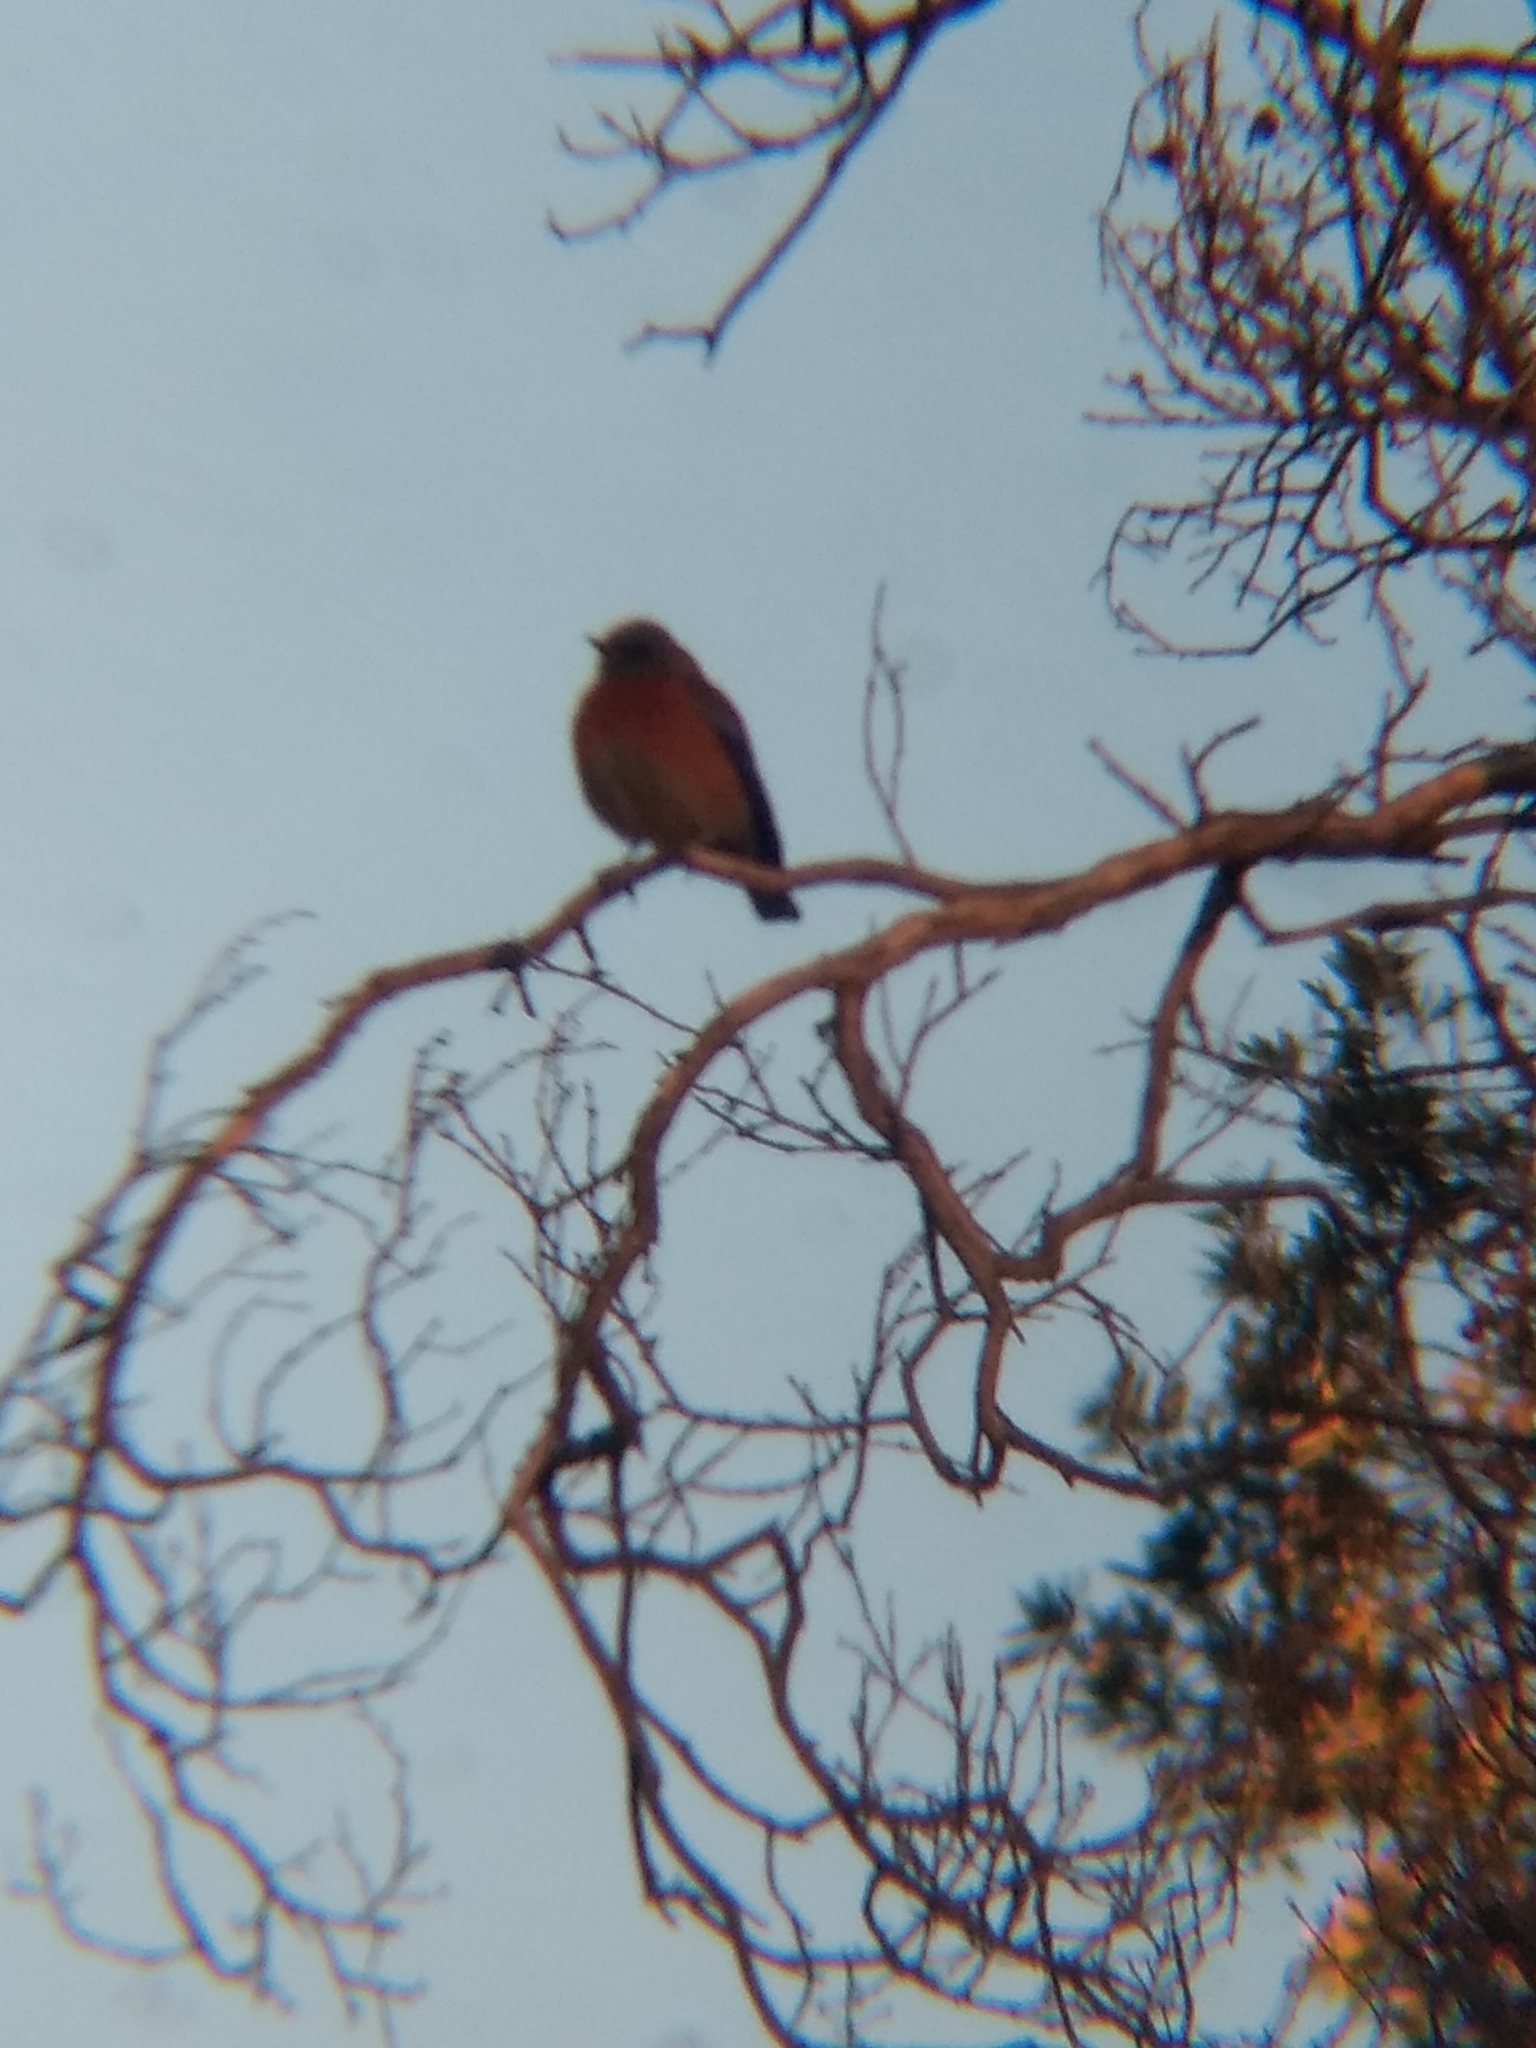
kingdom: Animalia
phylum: Chordata
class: Aves
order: Passeriformes
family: Turdidae
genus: Sialia
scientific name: Sialia mexicana
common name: Western bluebird
